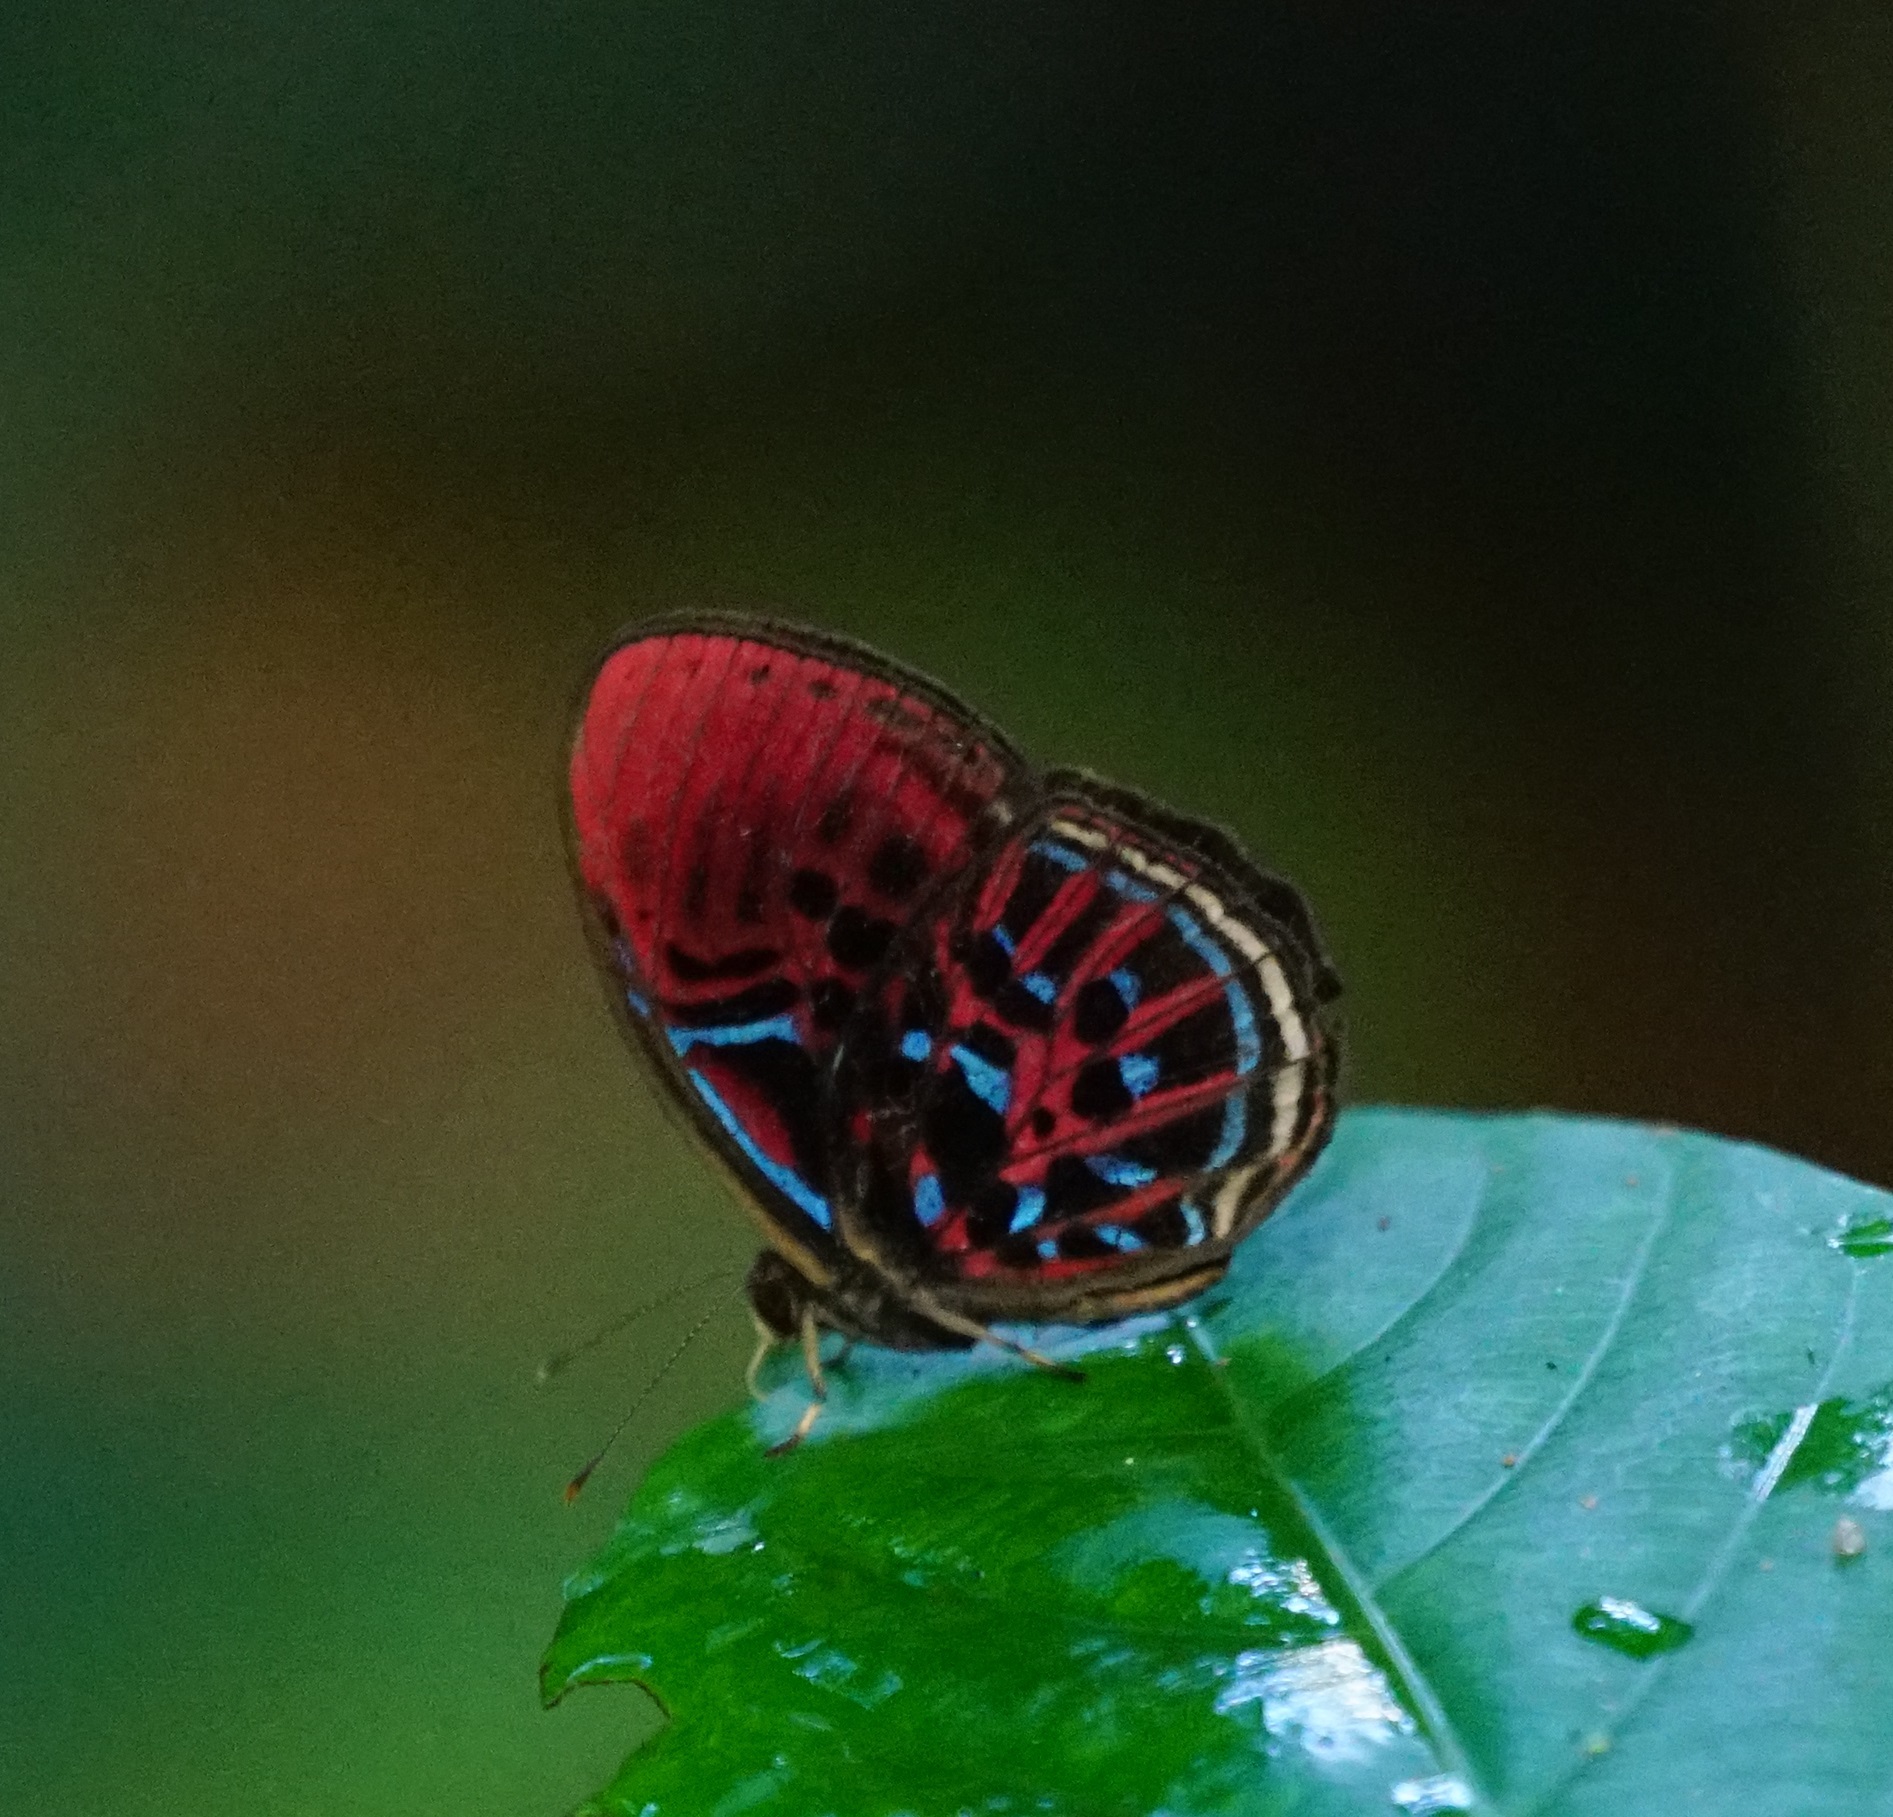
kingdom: Animalia
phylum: Arthropoda
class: Insecta
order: Lepidoptera
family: Riodinidae
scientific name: Riodinidae
